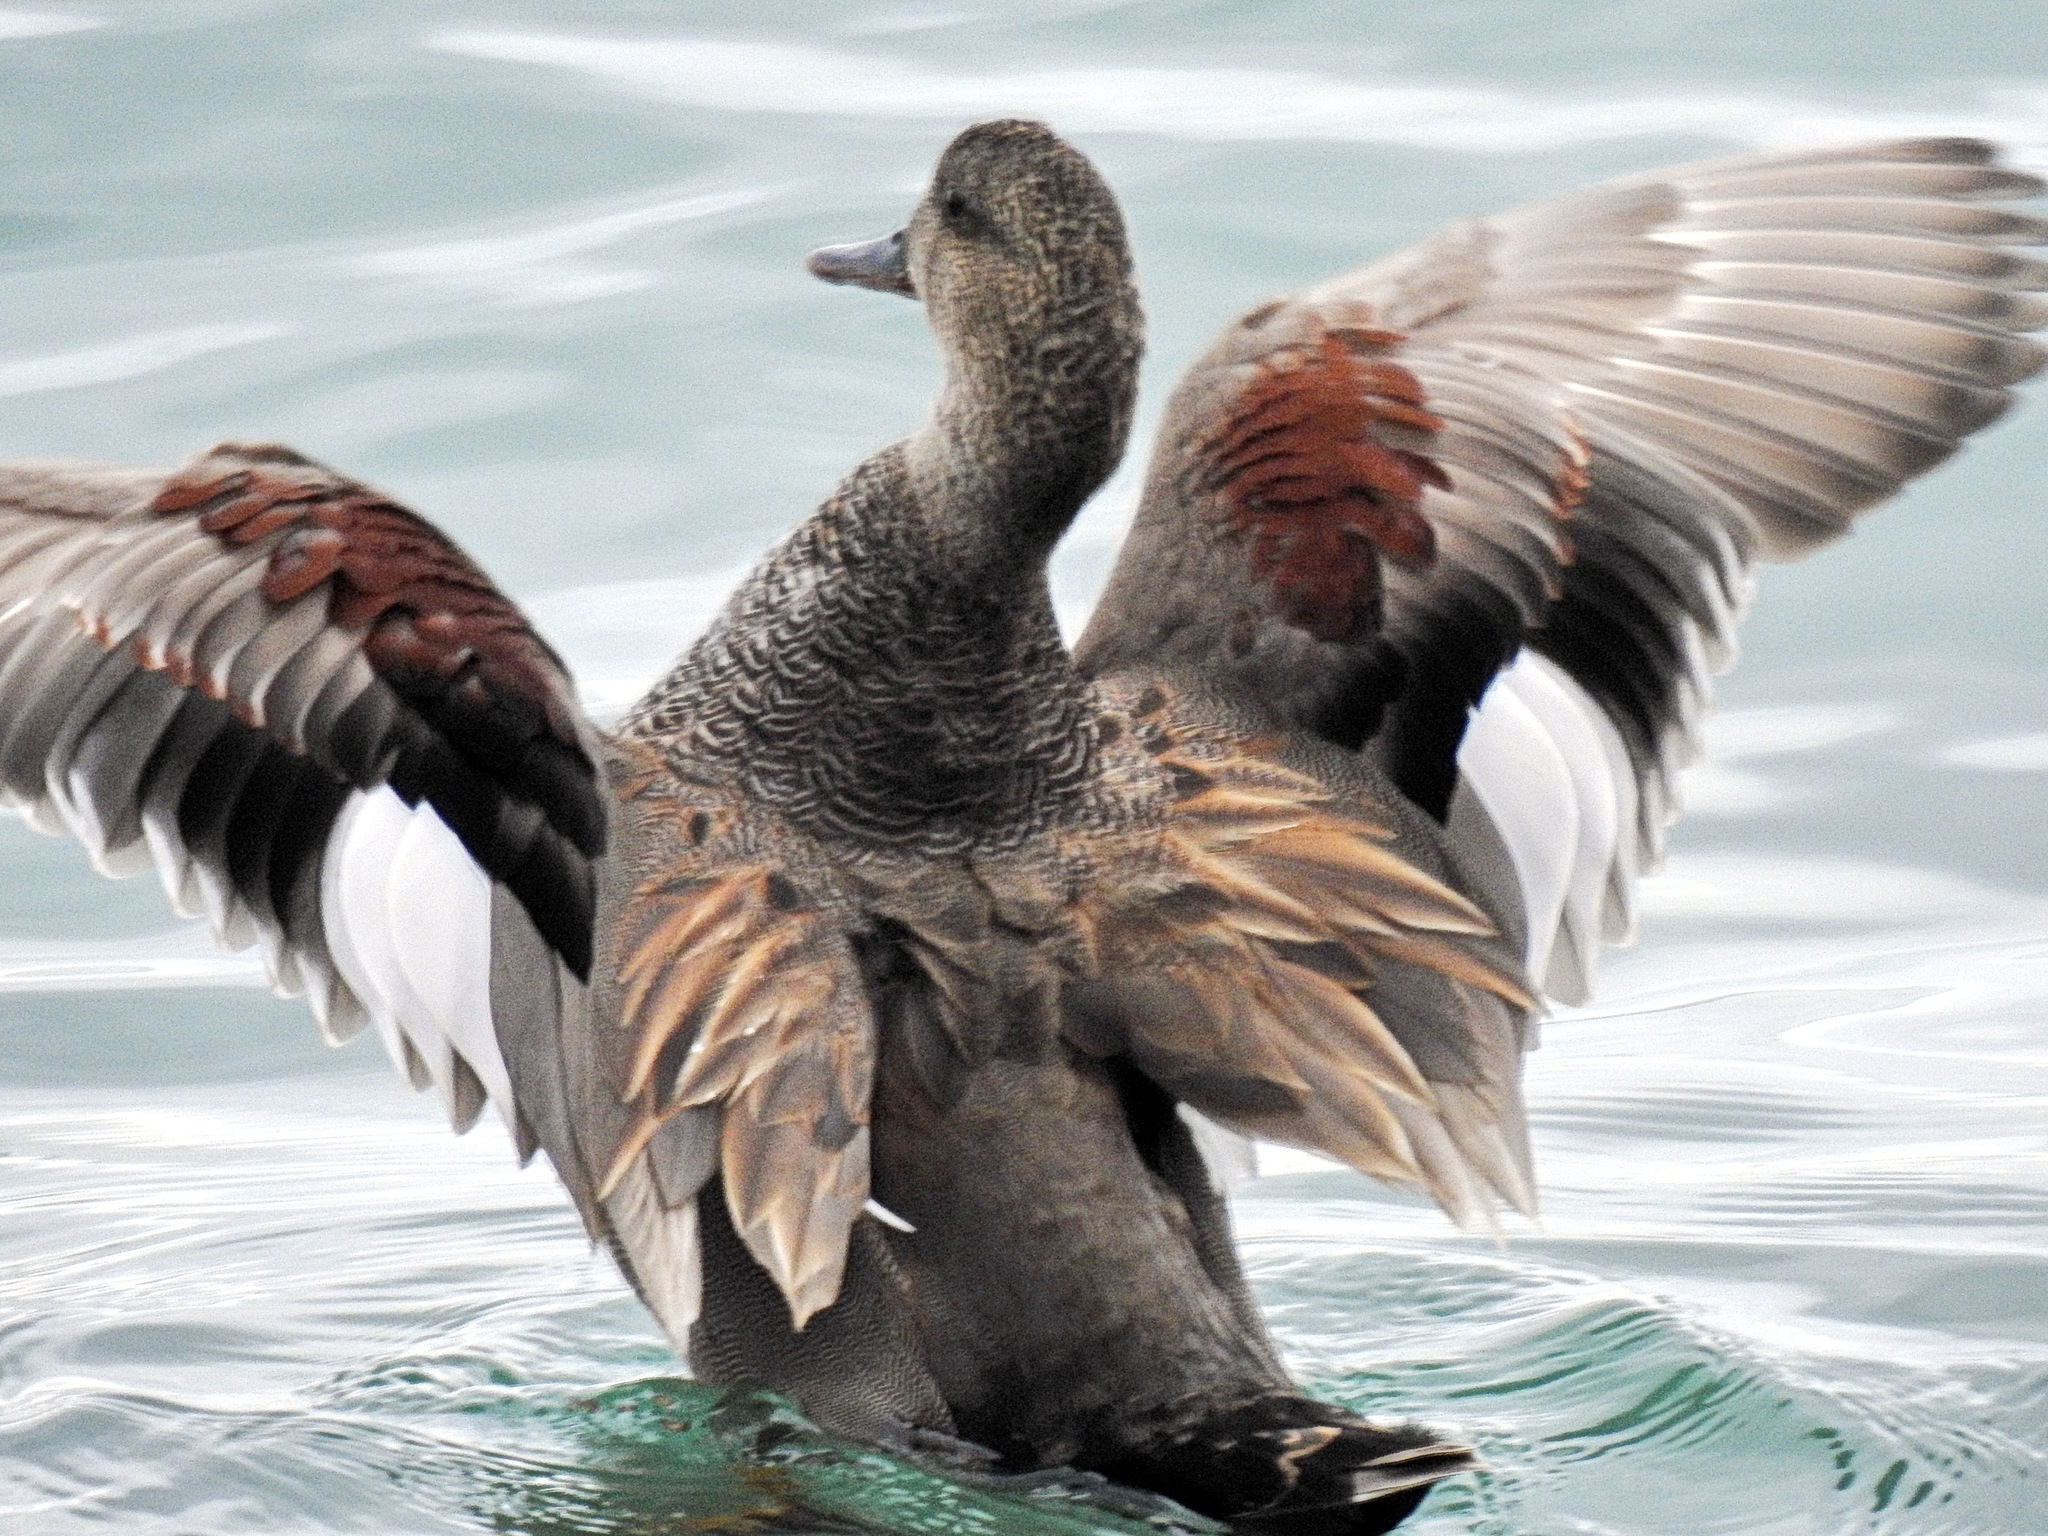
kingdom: Animalia
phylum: Chordata
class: Aves
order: Anseriformes
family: Anatidae
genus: Mareca
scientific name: Mareca strepera
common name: Gadwall
